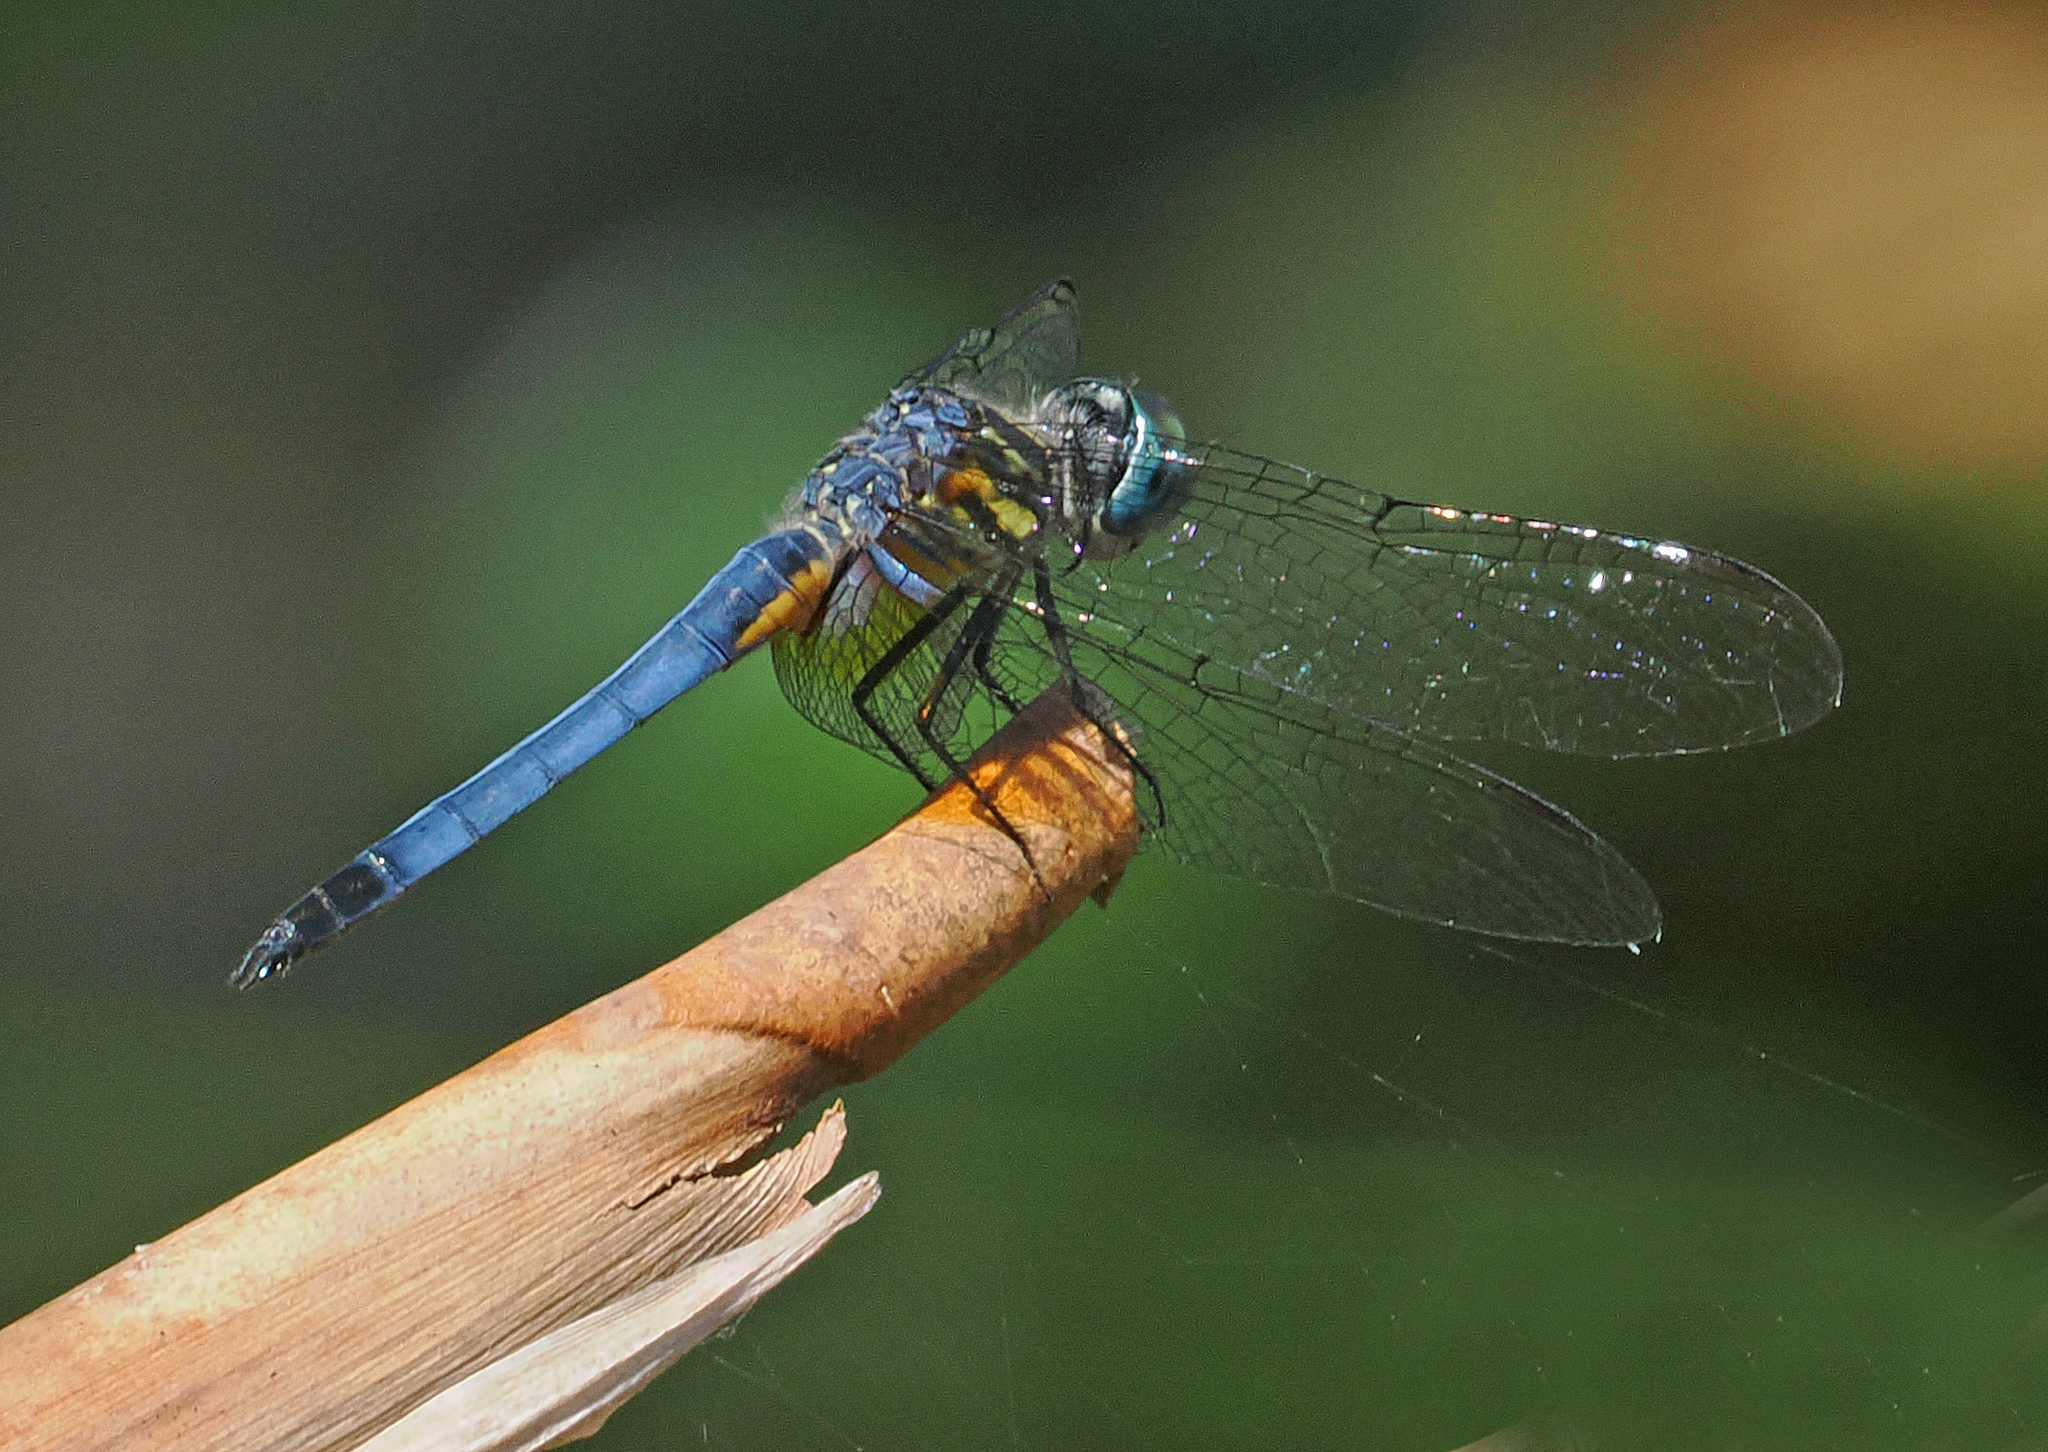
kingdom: Animalia
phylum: Arthropoda
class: Insecta
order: Odonata
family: Libellulidae
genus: Pachydiplax
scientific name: Pachydiplax longipennis
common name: Blue dasher
